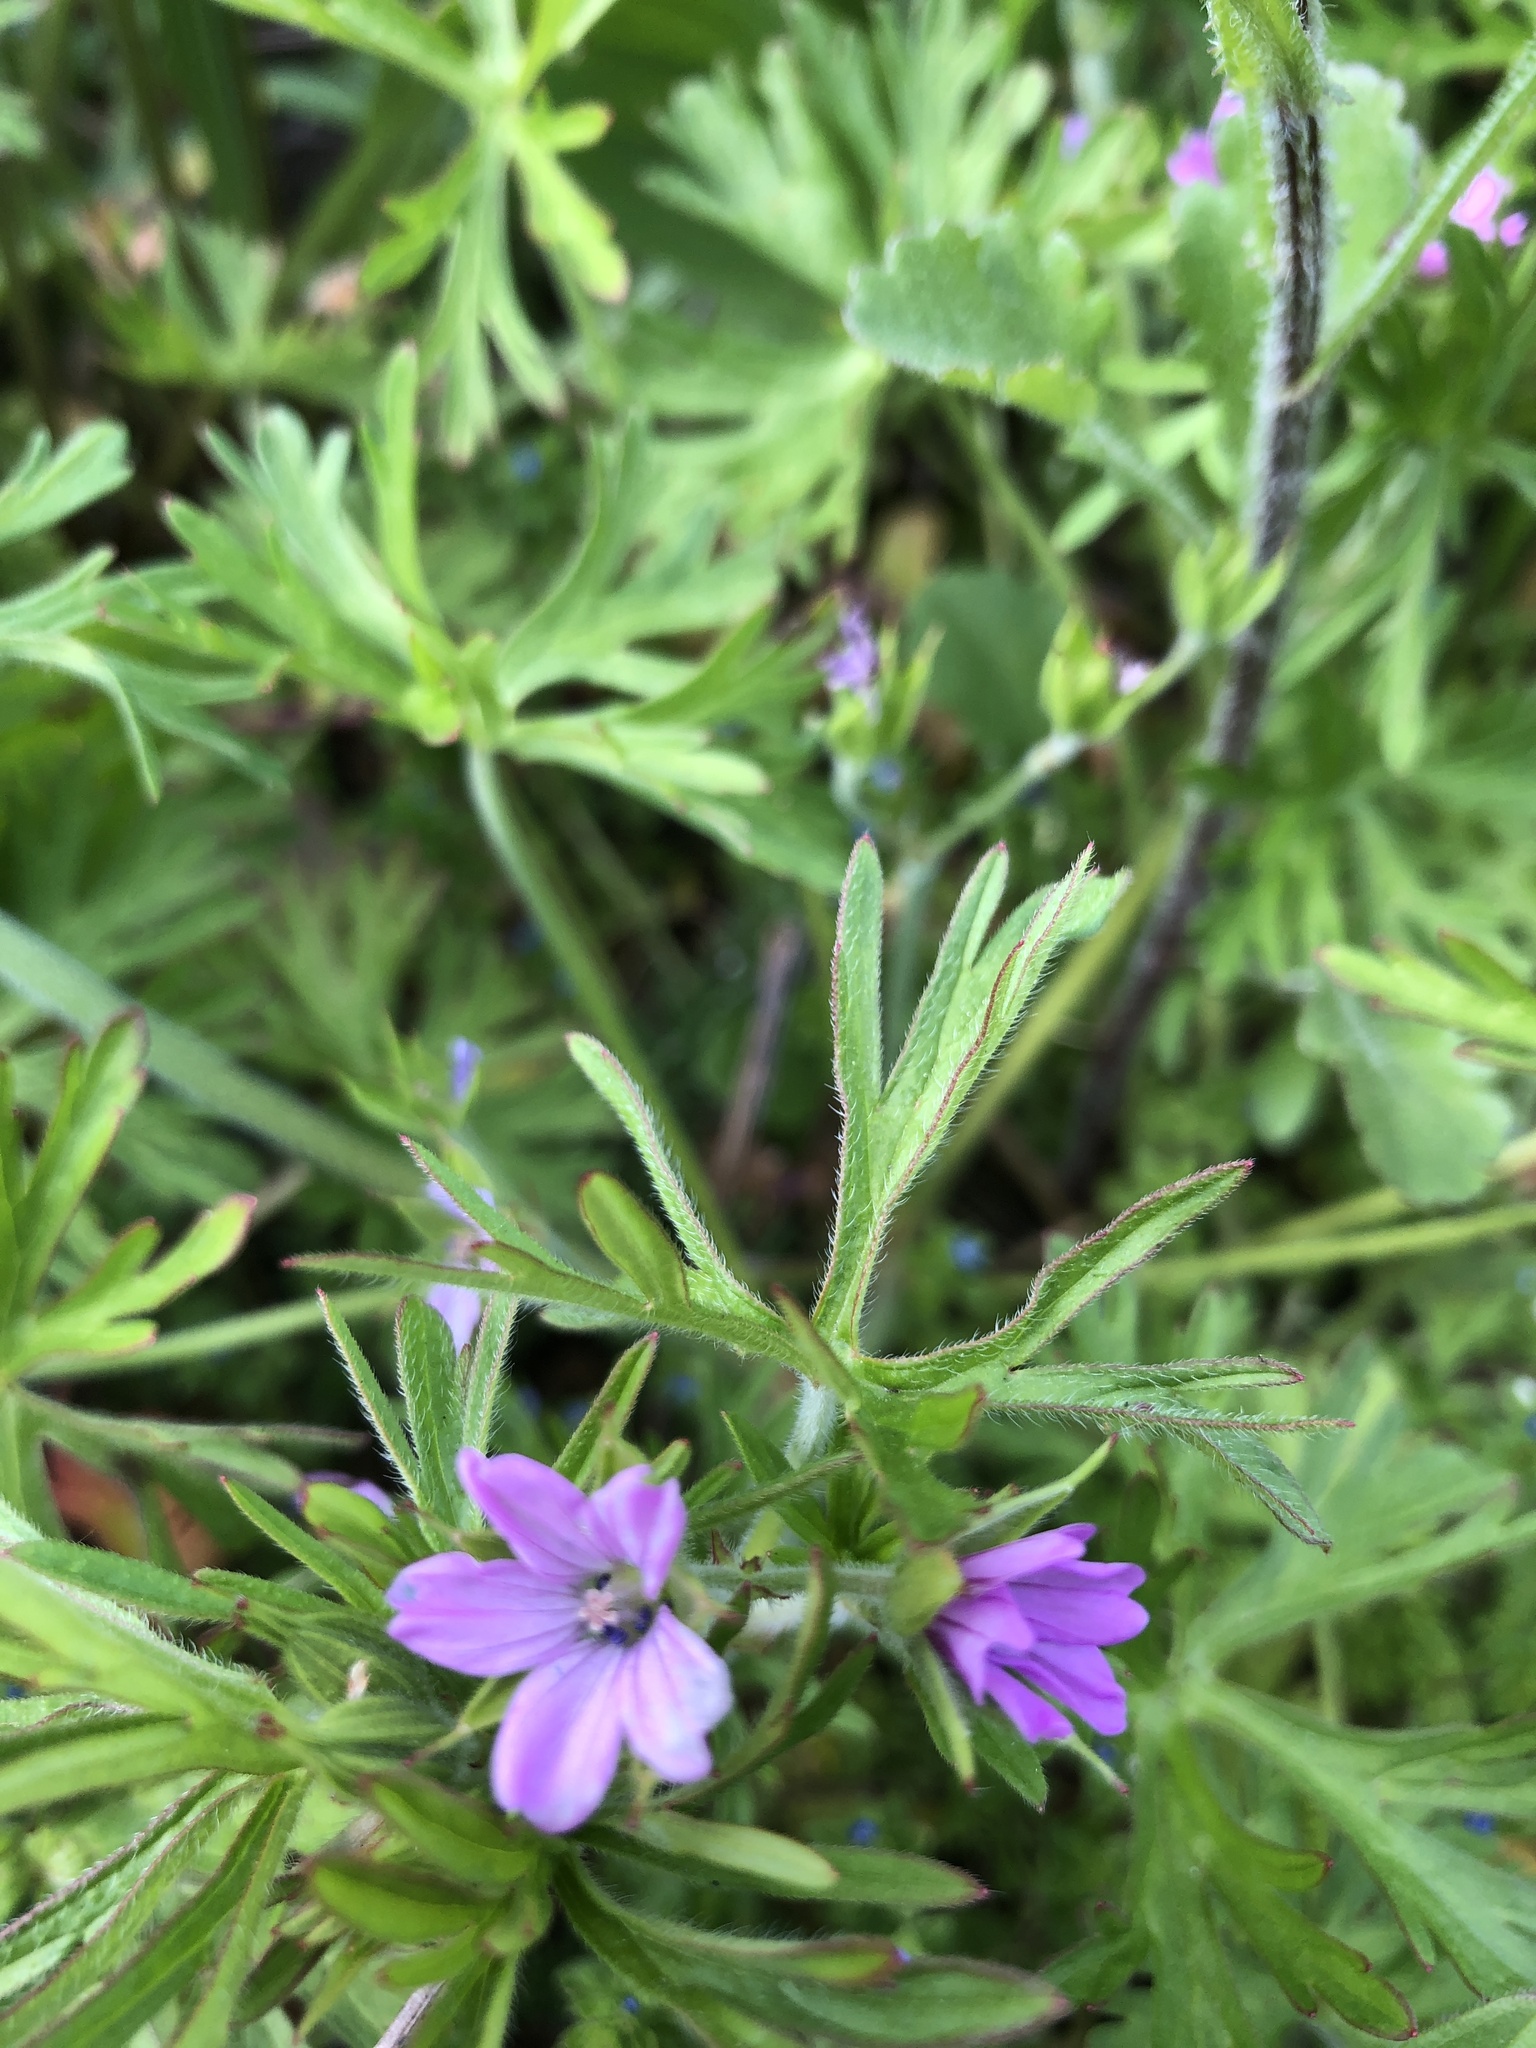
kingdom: Plantae
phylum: Tracheophyta
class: Magnoliopsida
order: Geraniales
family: Geraniaceae
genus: Geranium
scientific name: Geranium dissectum
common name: Cut-leaved crane's-bill
